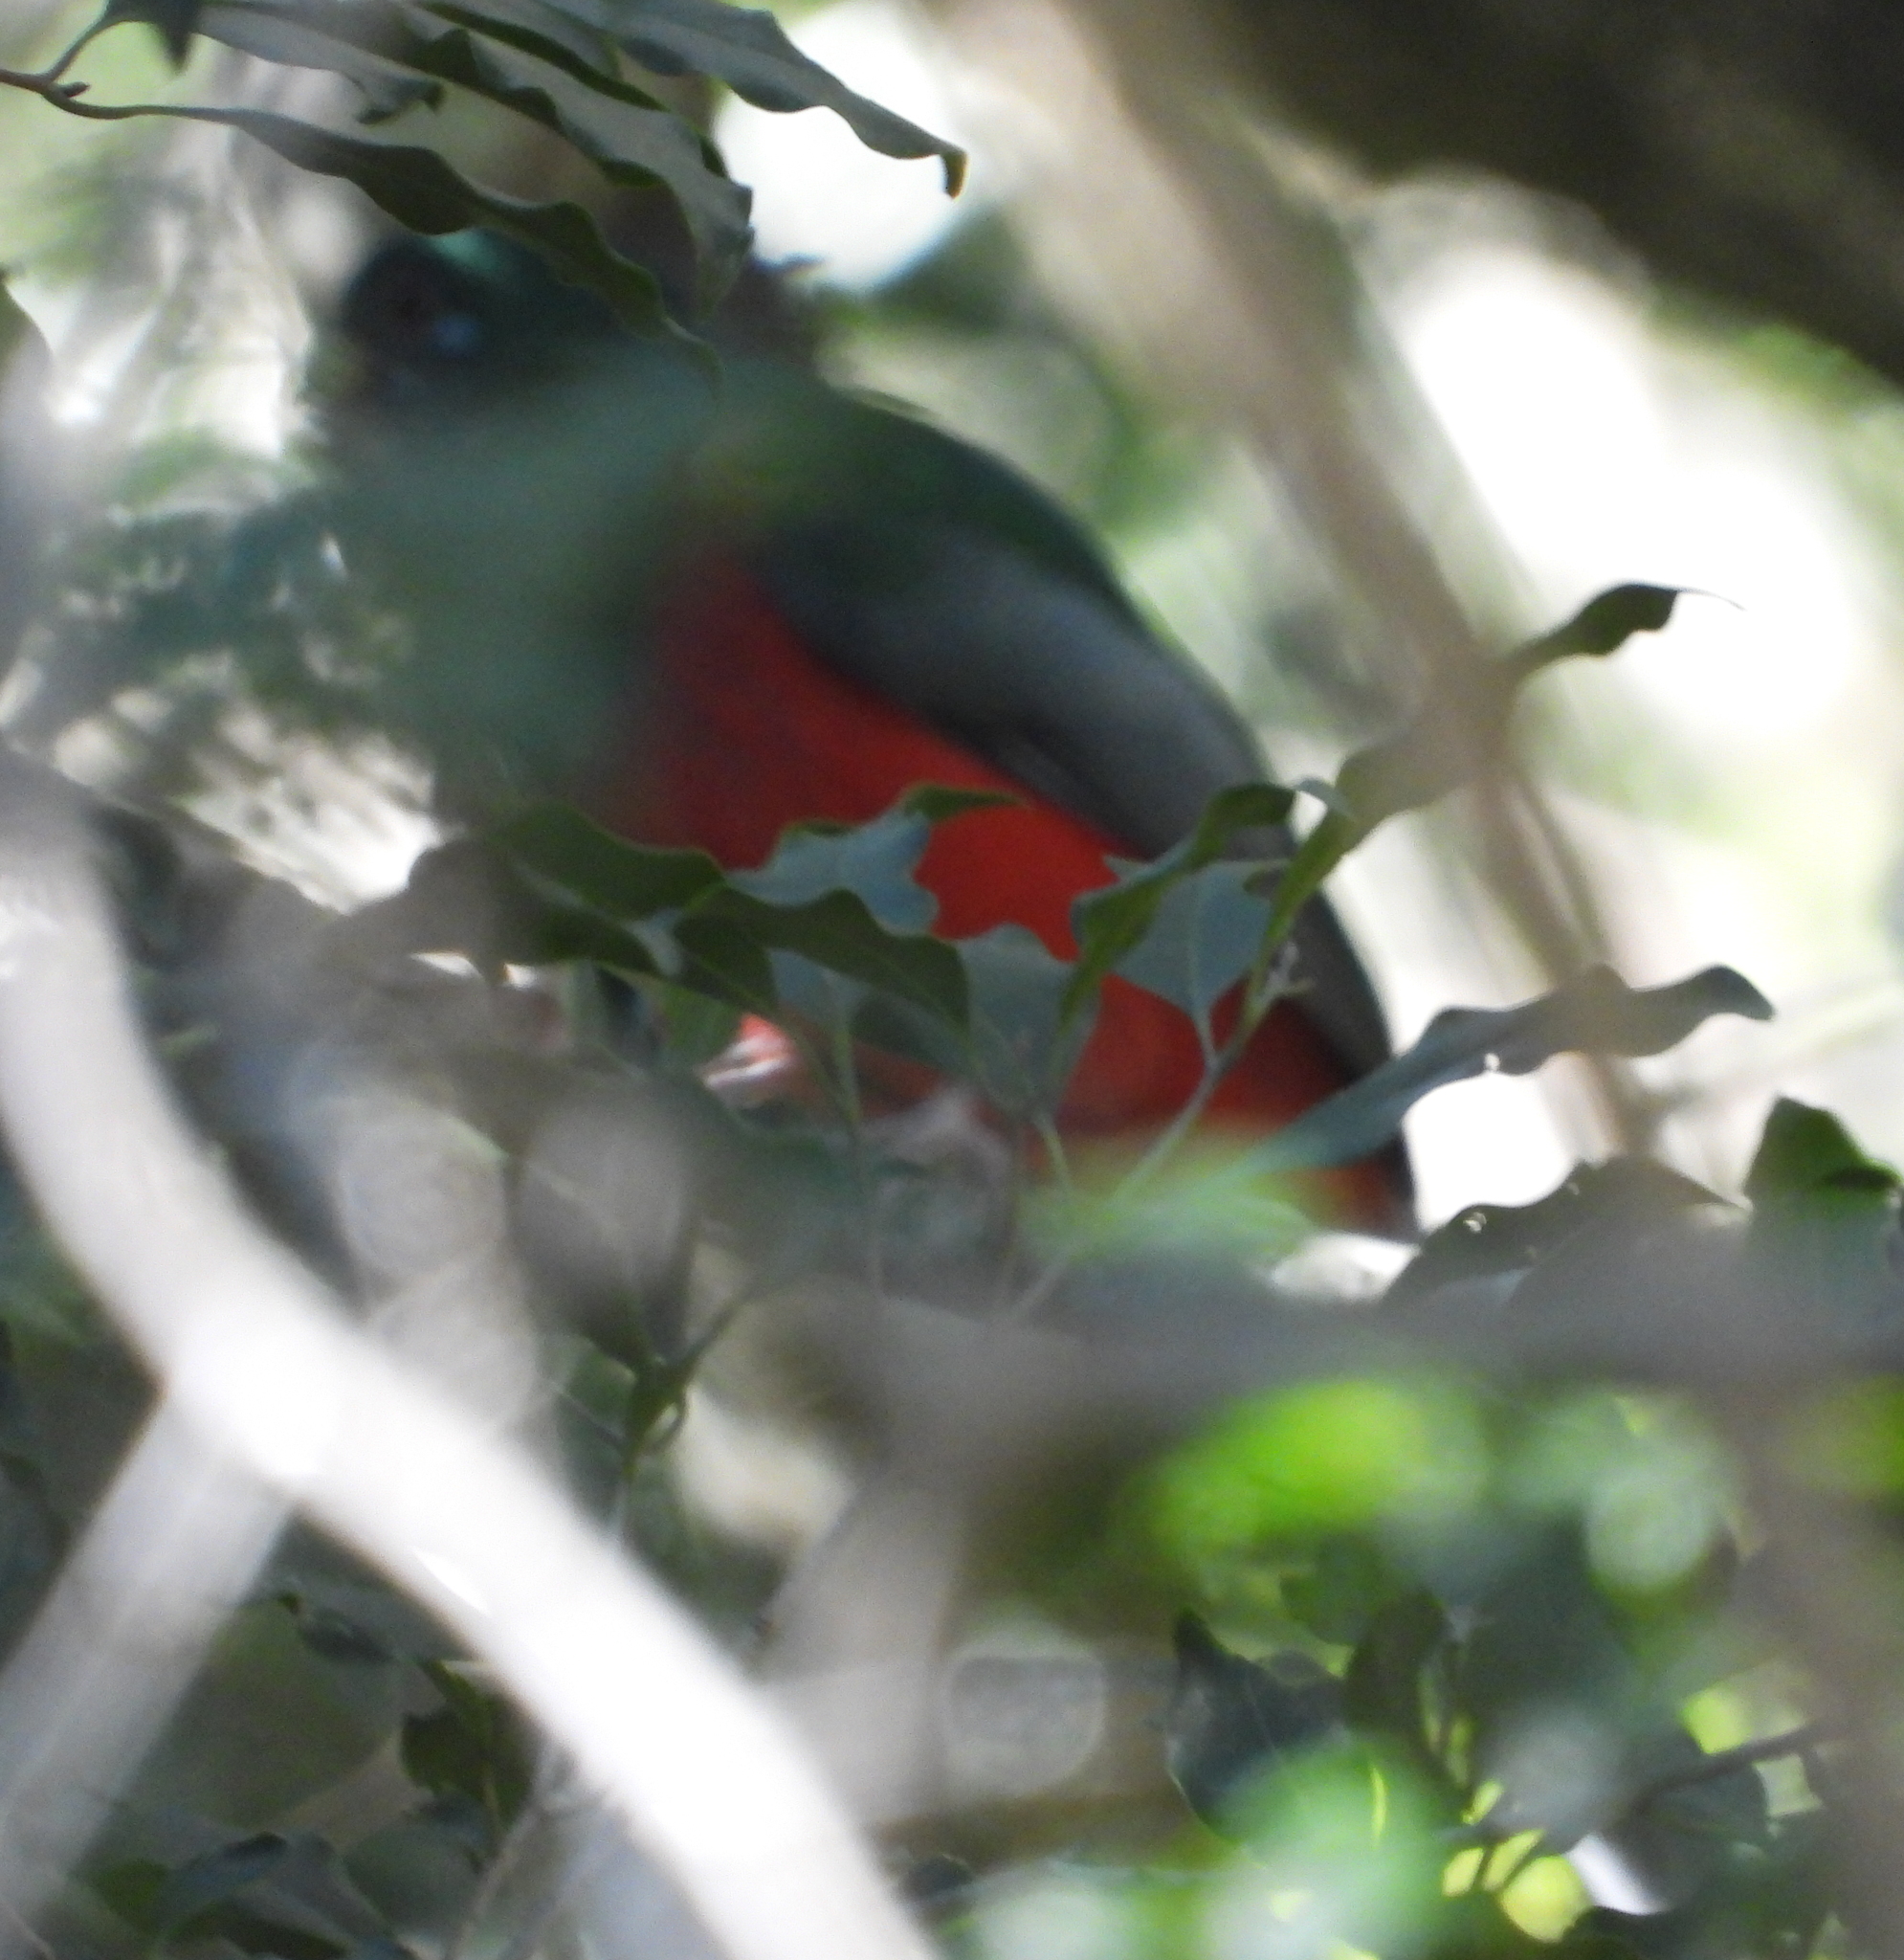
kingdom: Animalia
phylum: Chordata
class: Aves
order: Trogoniformes
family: Trogonidae
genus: Apaloderma
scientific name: Apaloderma narina
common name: Narina trogon
